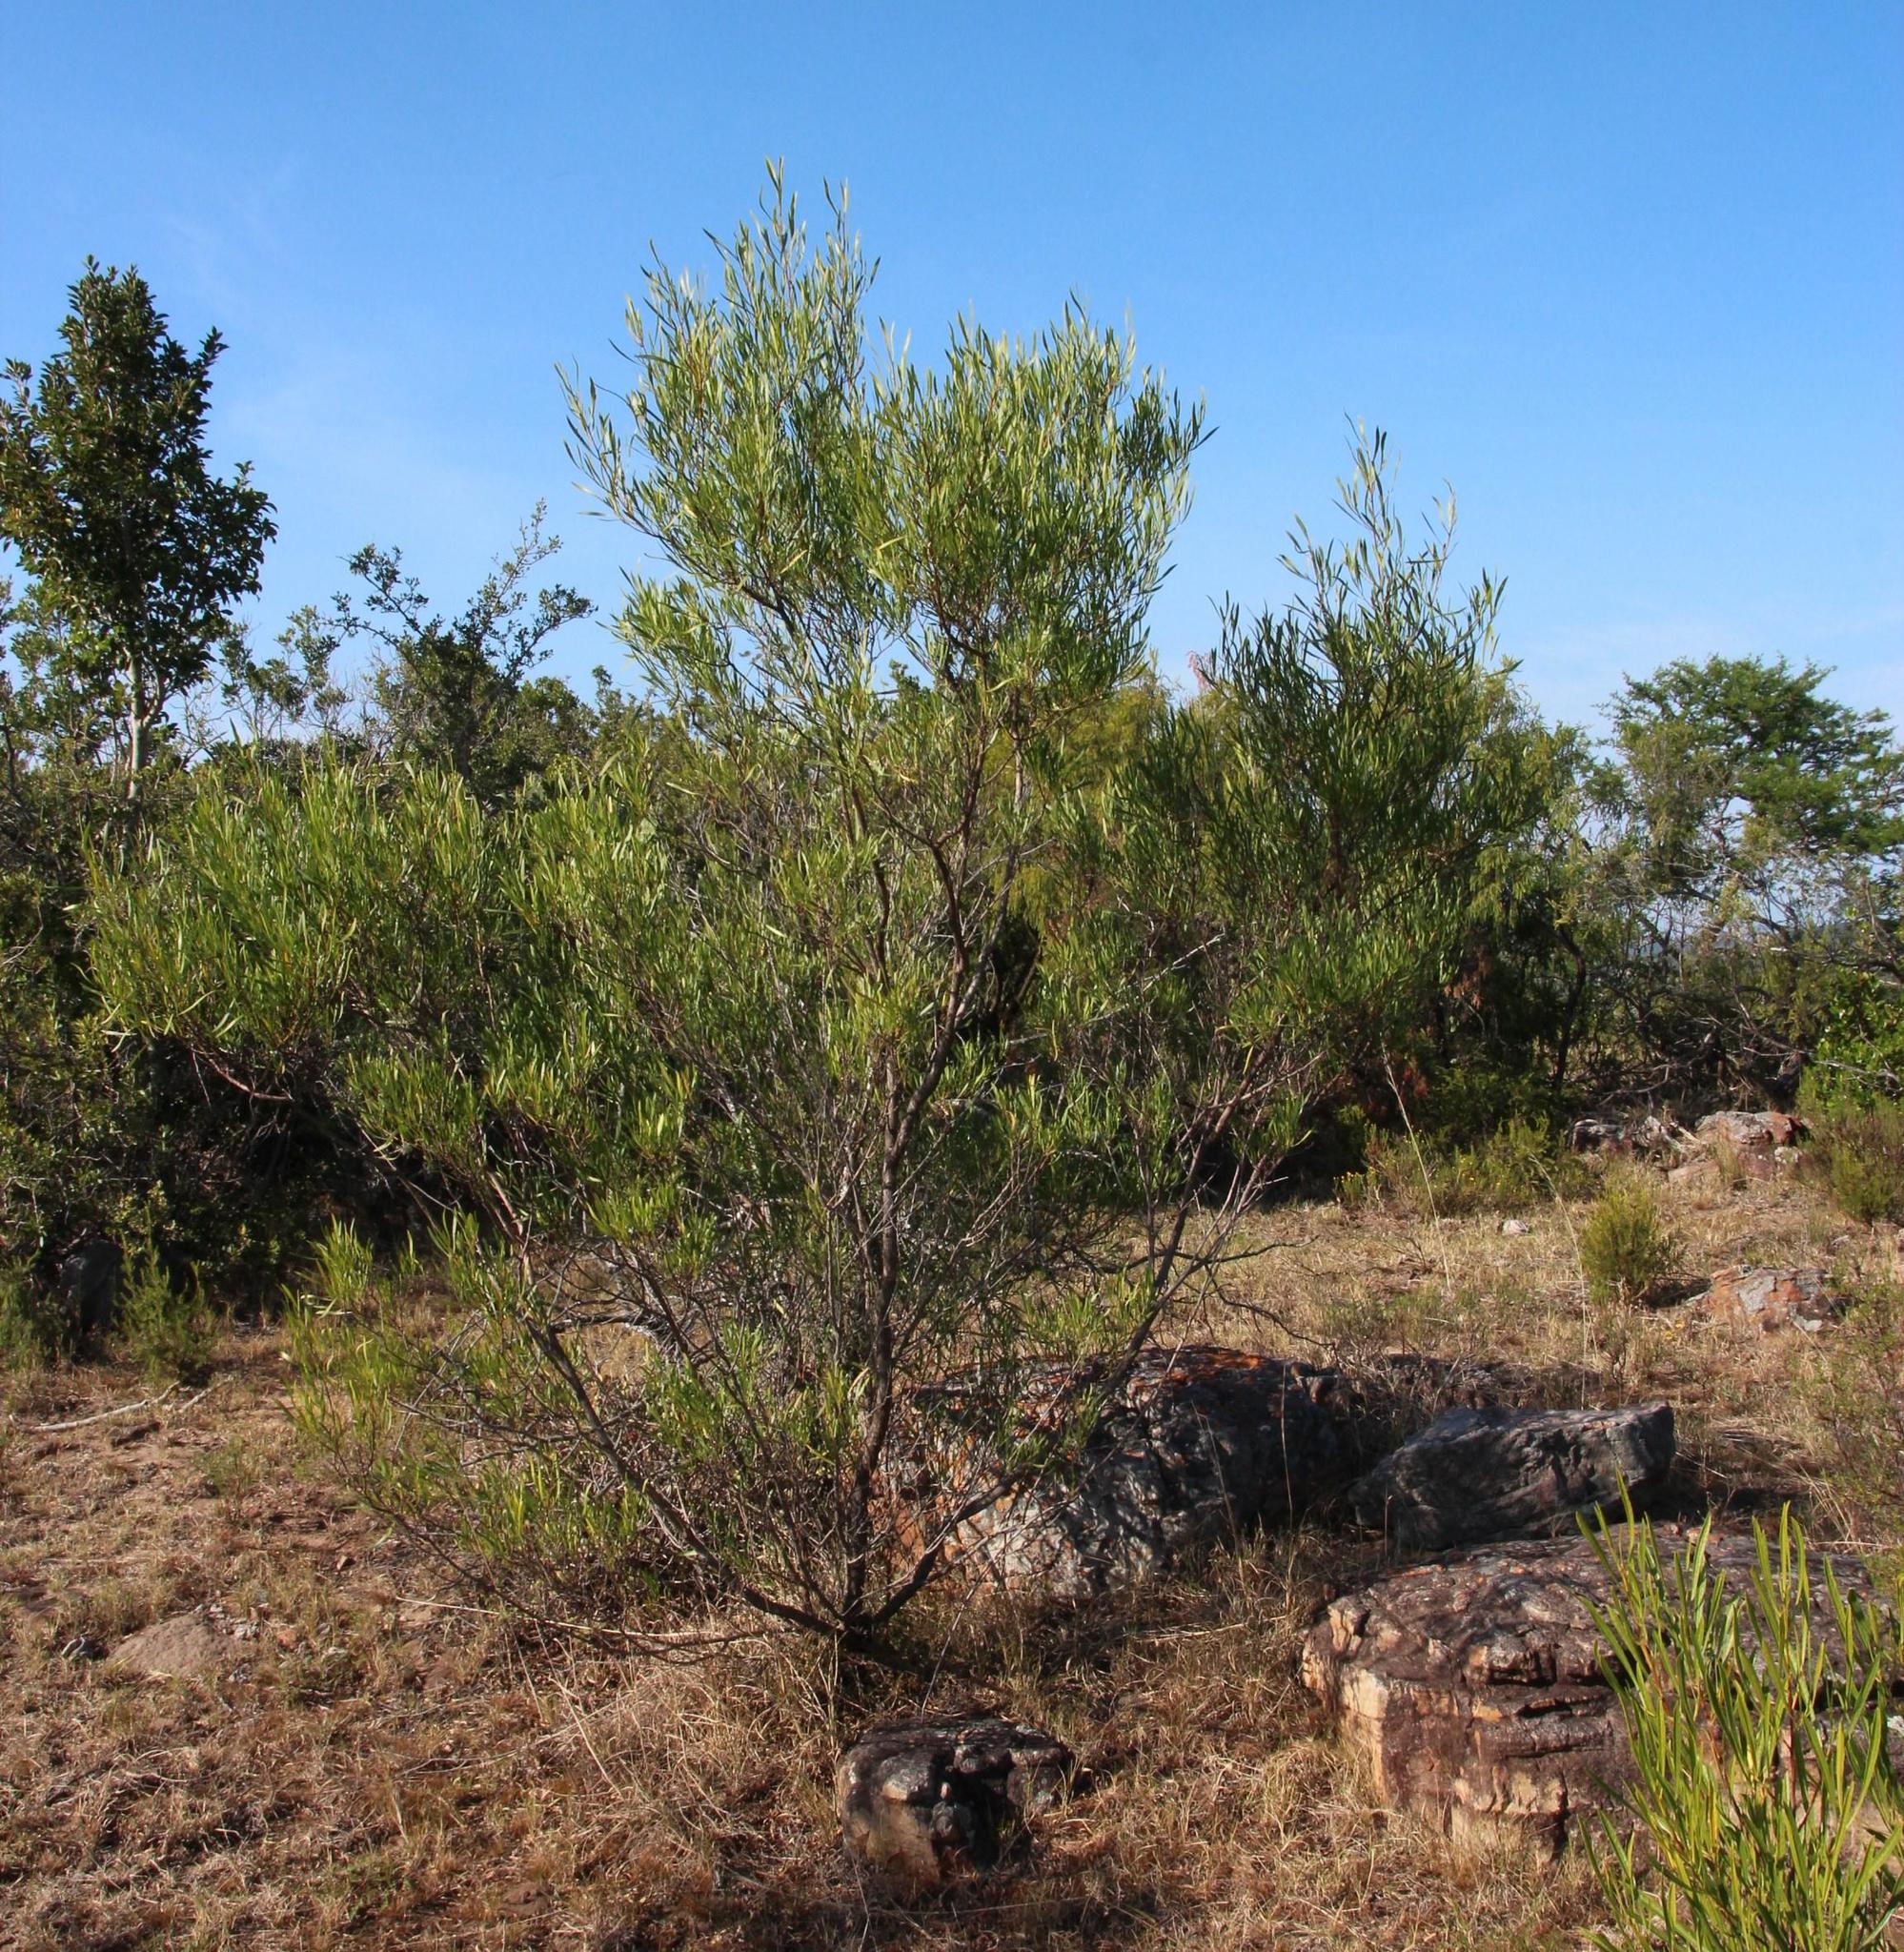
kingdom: Plantae
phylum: Tracheophyta
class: Magnoliopsida
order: Sapindales
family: Sapindaceae
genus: Dodonaea
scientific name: Dodonaea viscosa
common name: Hopbush
